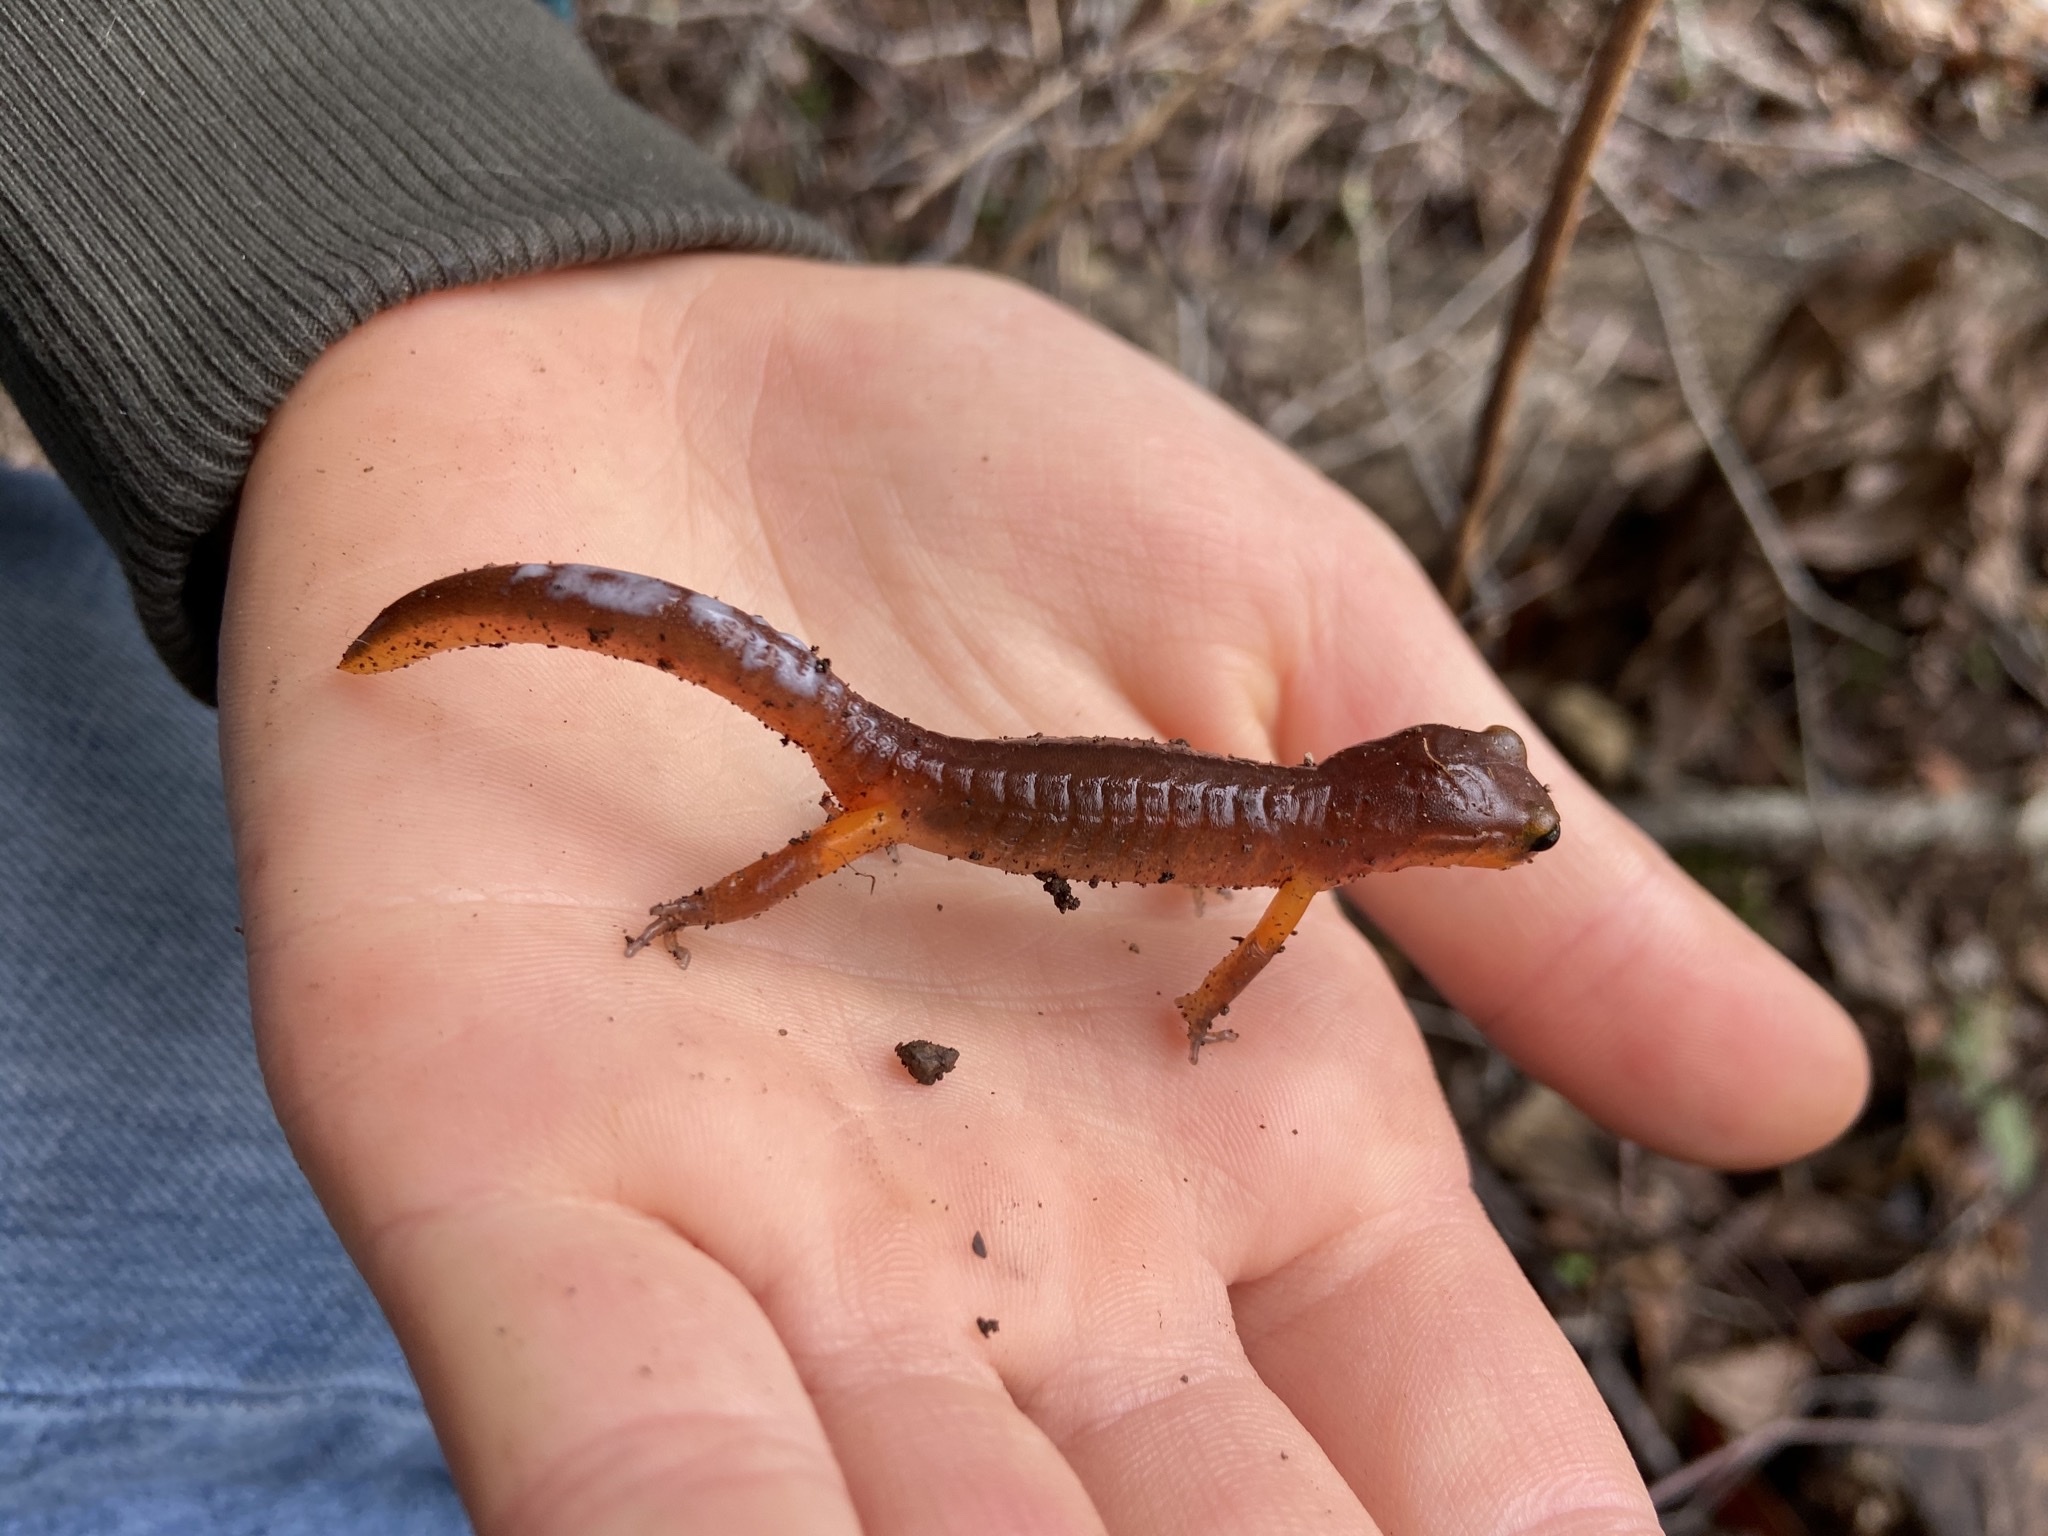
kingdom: Animalia
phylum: Chordata
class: Amphibia
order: Caudata
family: Plethodontidae
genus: Ensatina
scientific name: Ensatina eschscholtzii
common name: Ensatina
